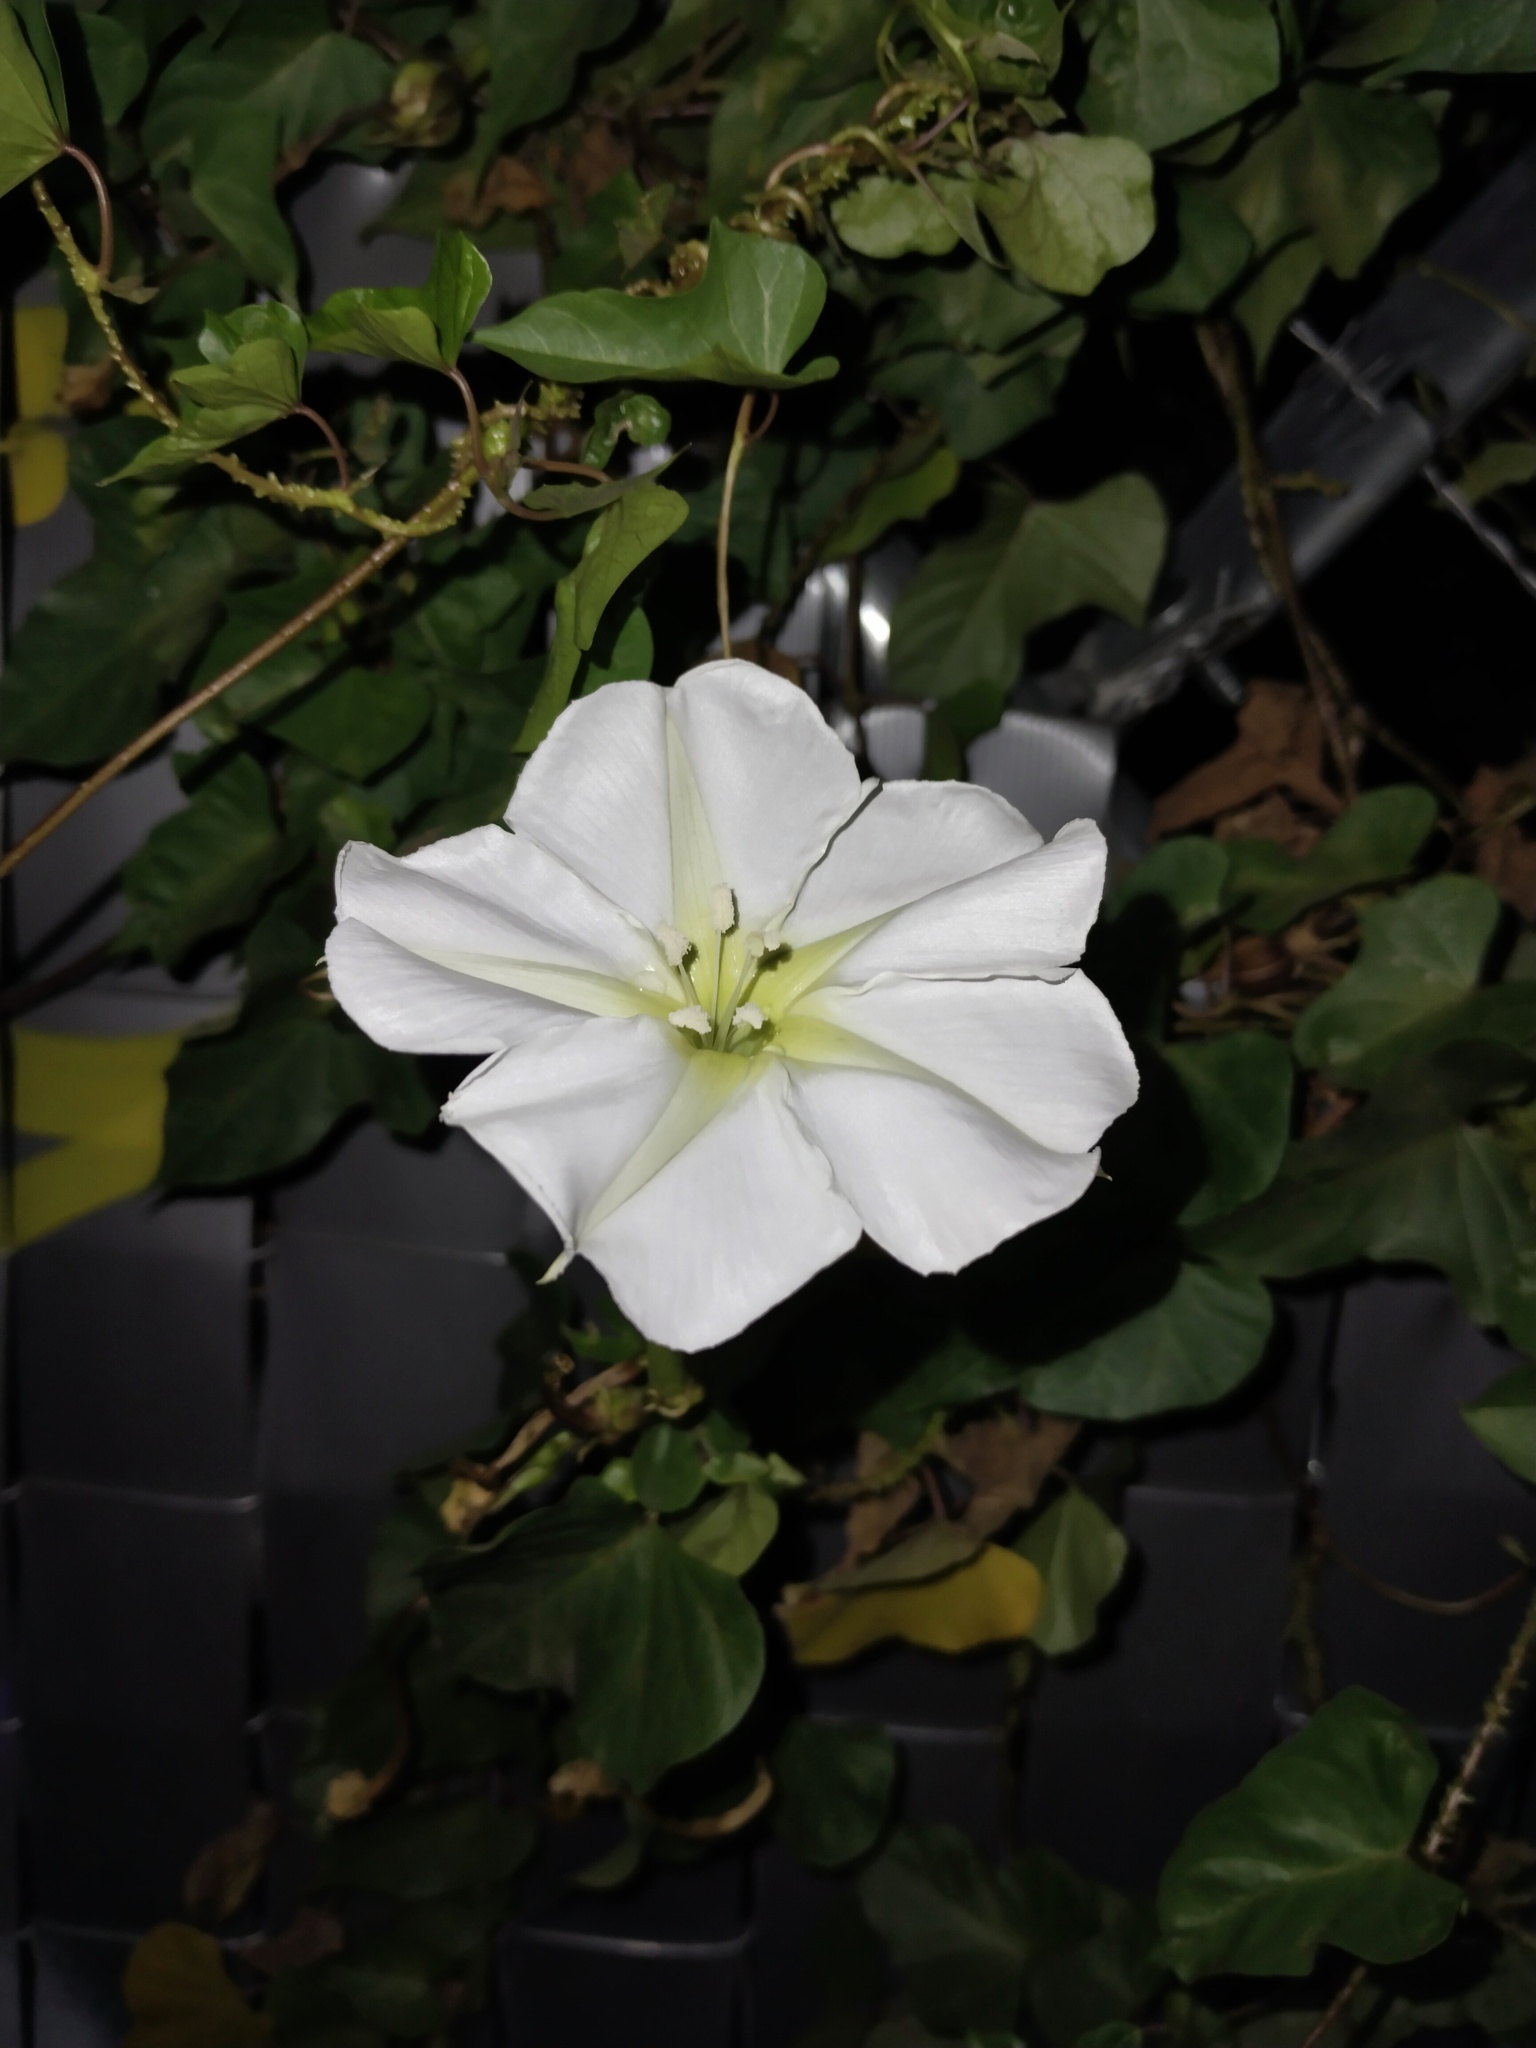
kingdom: Plantae
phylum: Tracheophyta
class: Magnoliopsida
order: Solanales
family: Convolvulaceae
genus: Ipomoea
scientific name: Ipomoea alba
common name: Moonflower
